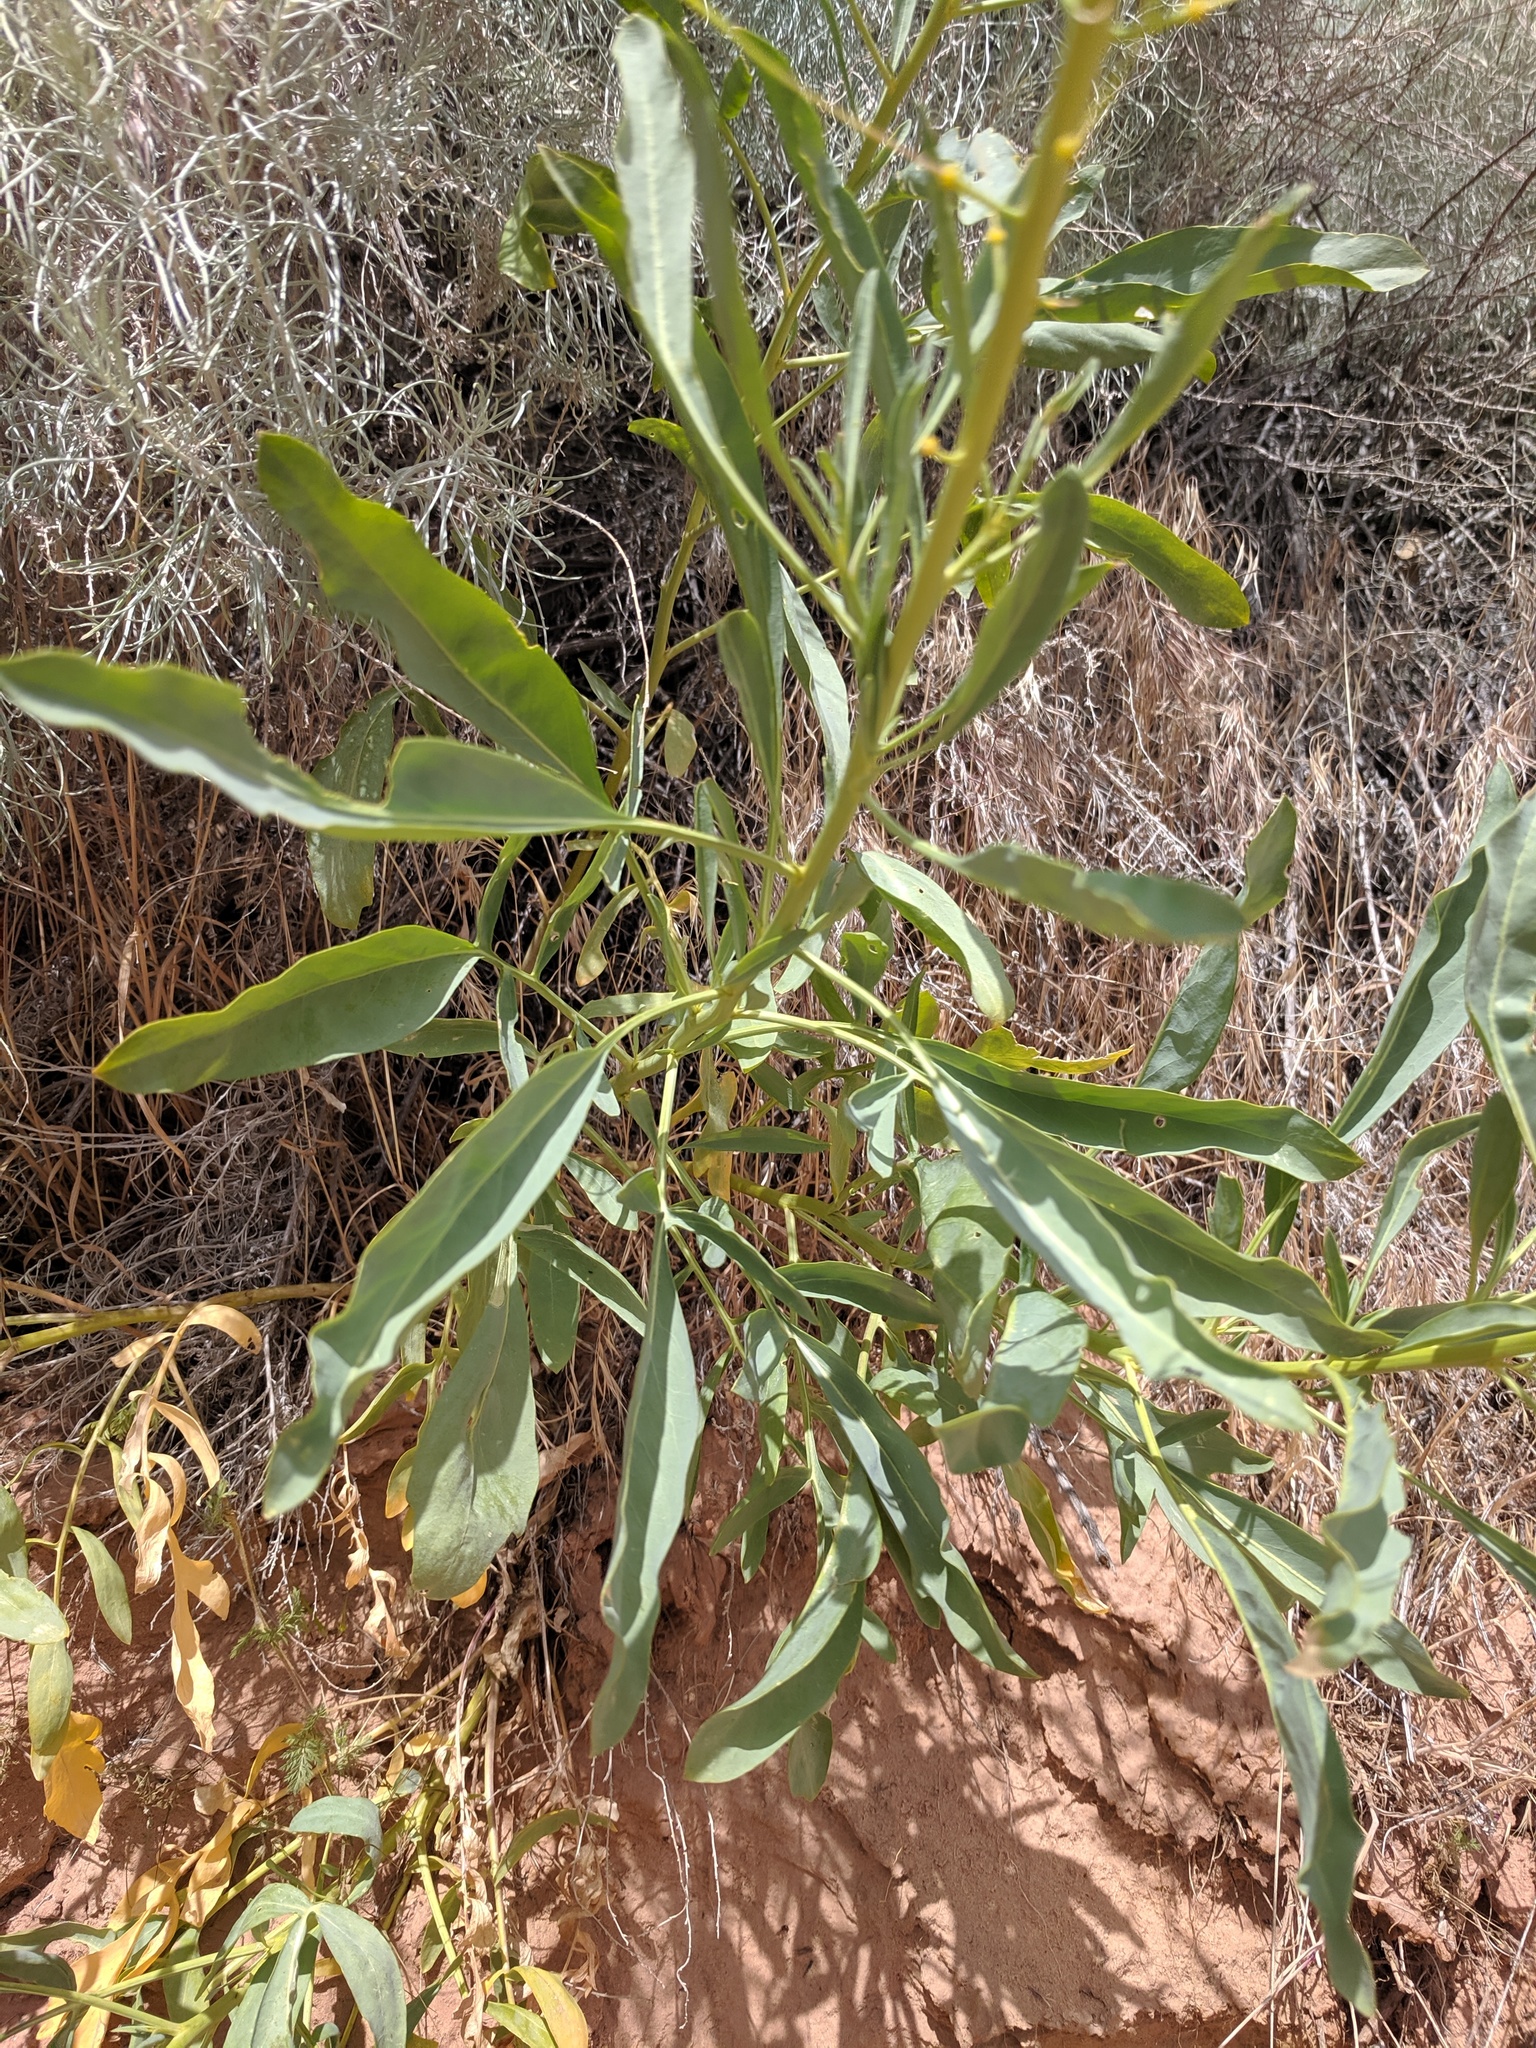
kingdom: Plantae
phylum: Tracheophyta
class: Magnoliopsida
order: Brassicales
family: Brassicaceae
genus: Stanleya
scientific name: Stanleya pinnata
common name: Prince's-plume
